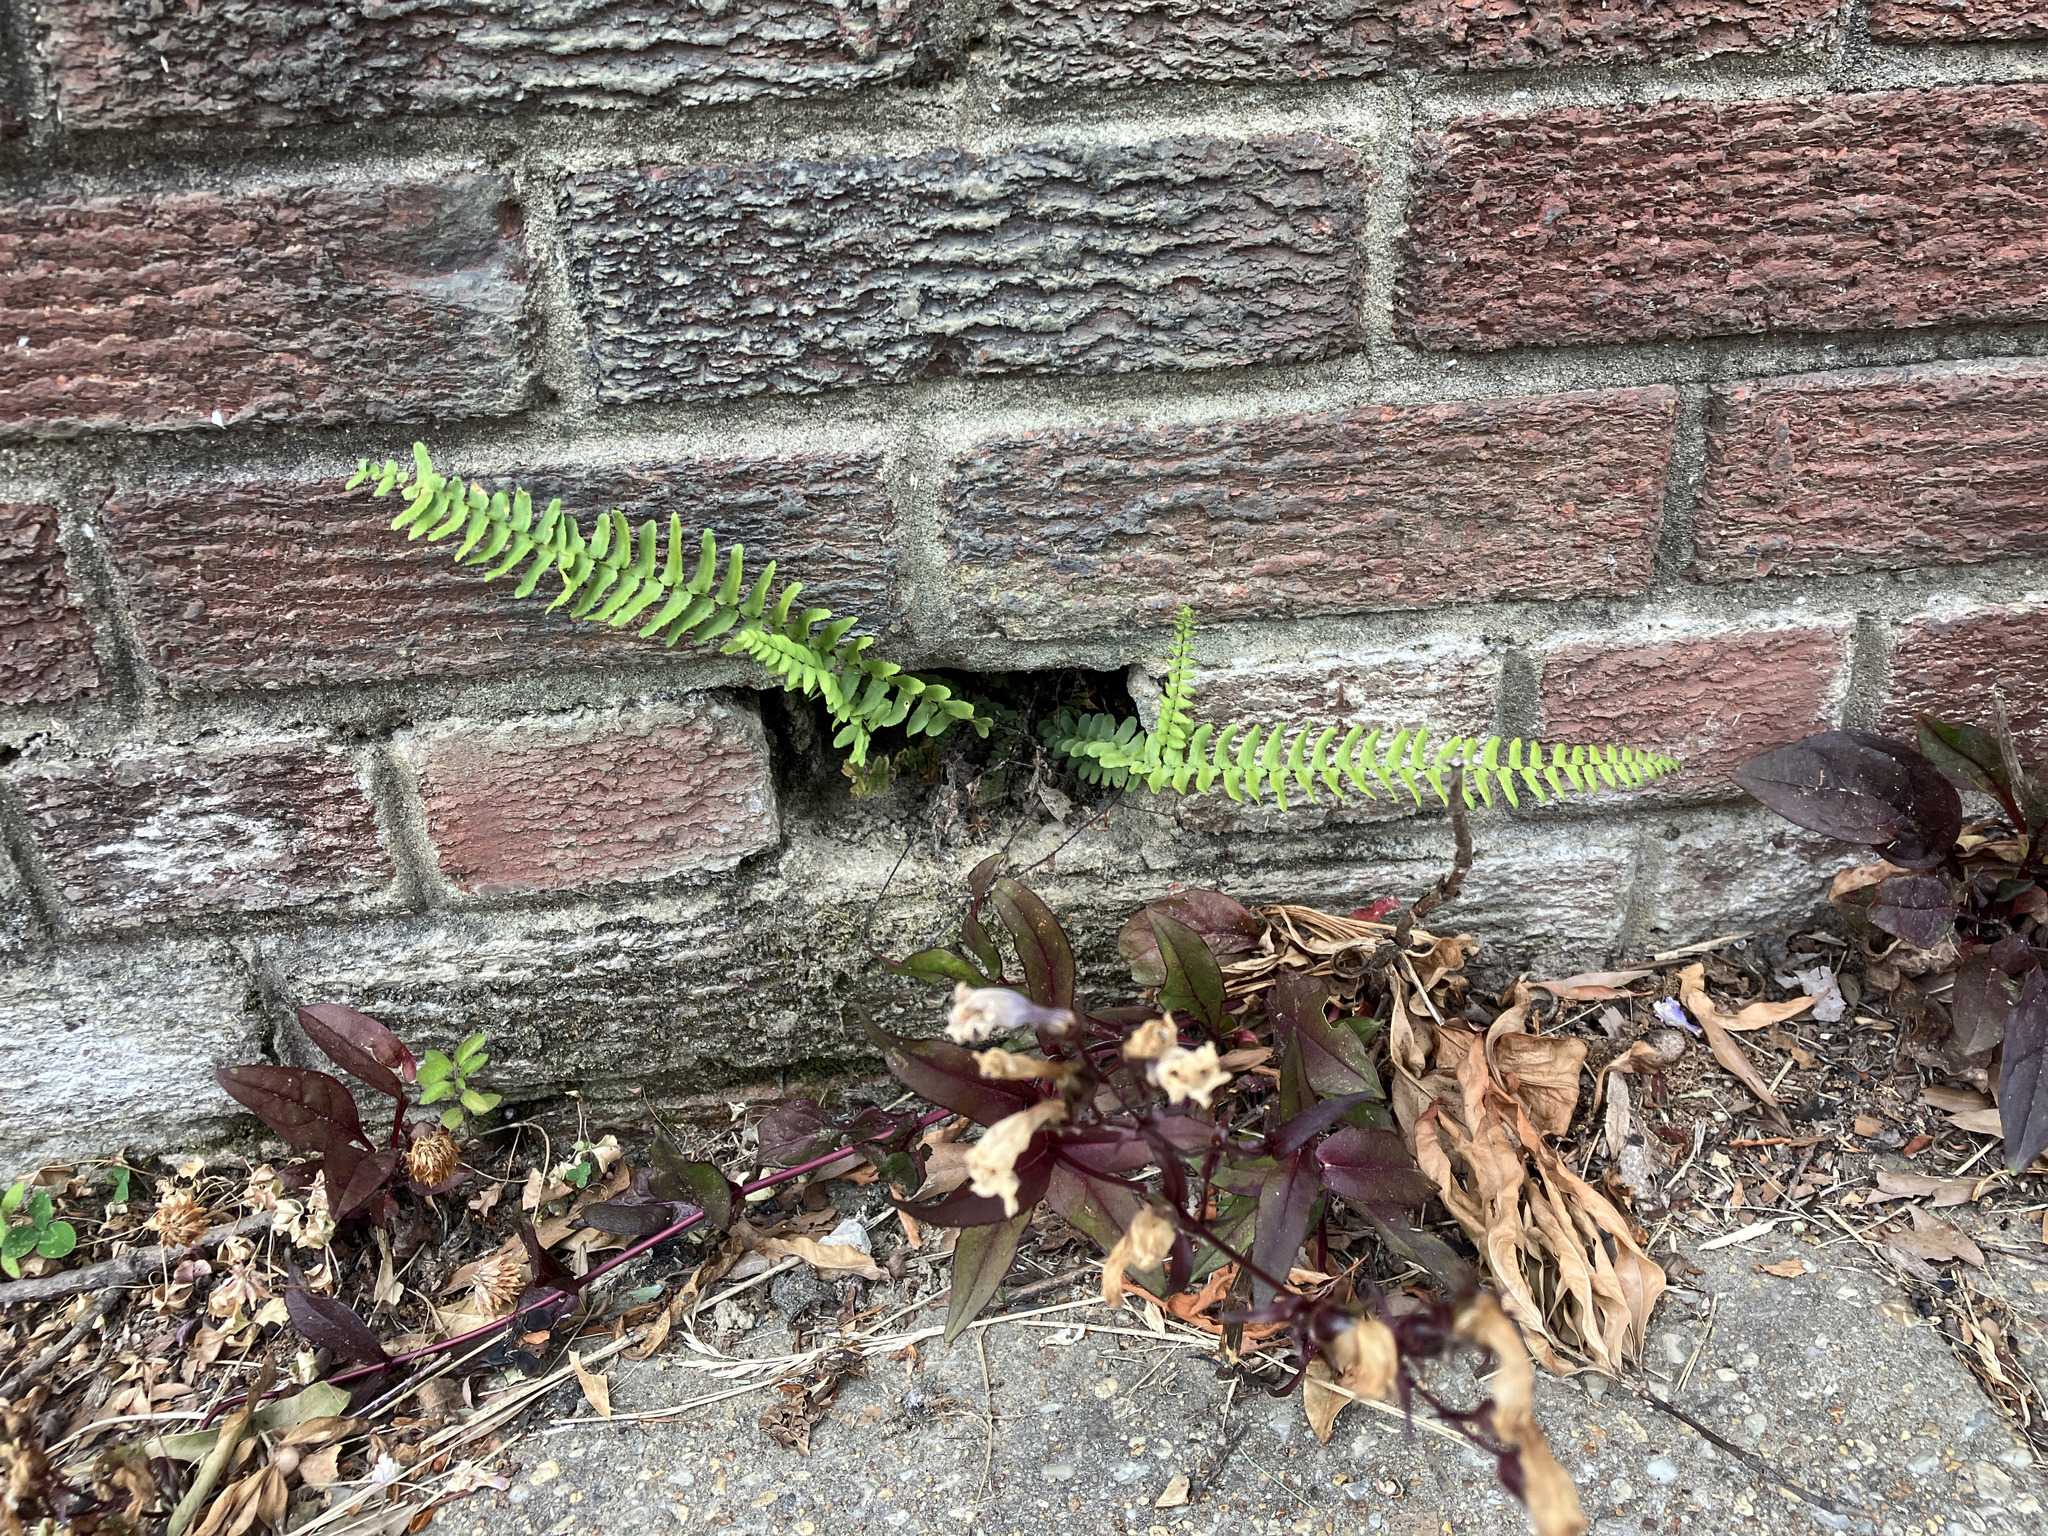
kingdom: Plantae
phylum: Tracheophyta
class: Polypodiopsida
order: Polypodiales
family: Aspleniaceae
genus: Asplenium
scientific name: Asplenium platyneuron
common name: Ebony spleenwort
